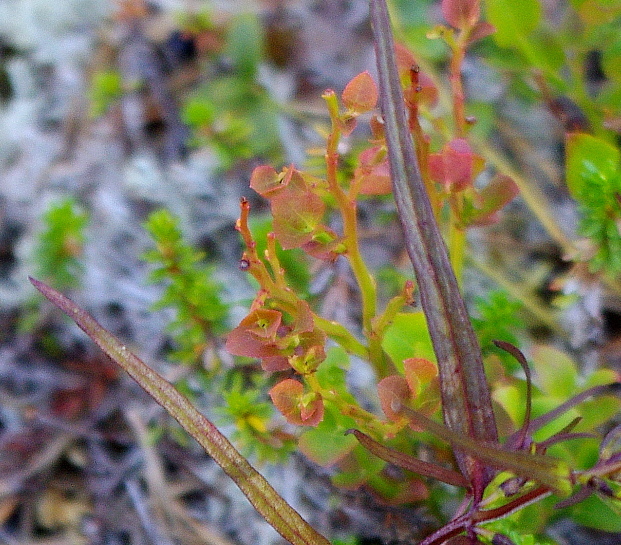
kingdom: Plantae
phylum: Tracheophyta
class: Magnoliopsida
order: Ericales
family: Ericaceae
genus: Vaccinium
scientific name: Vaccinium myrtillus
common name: Bilberry
